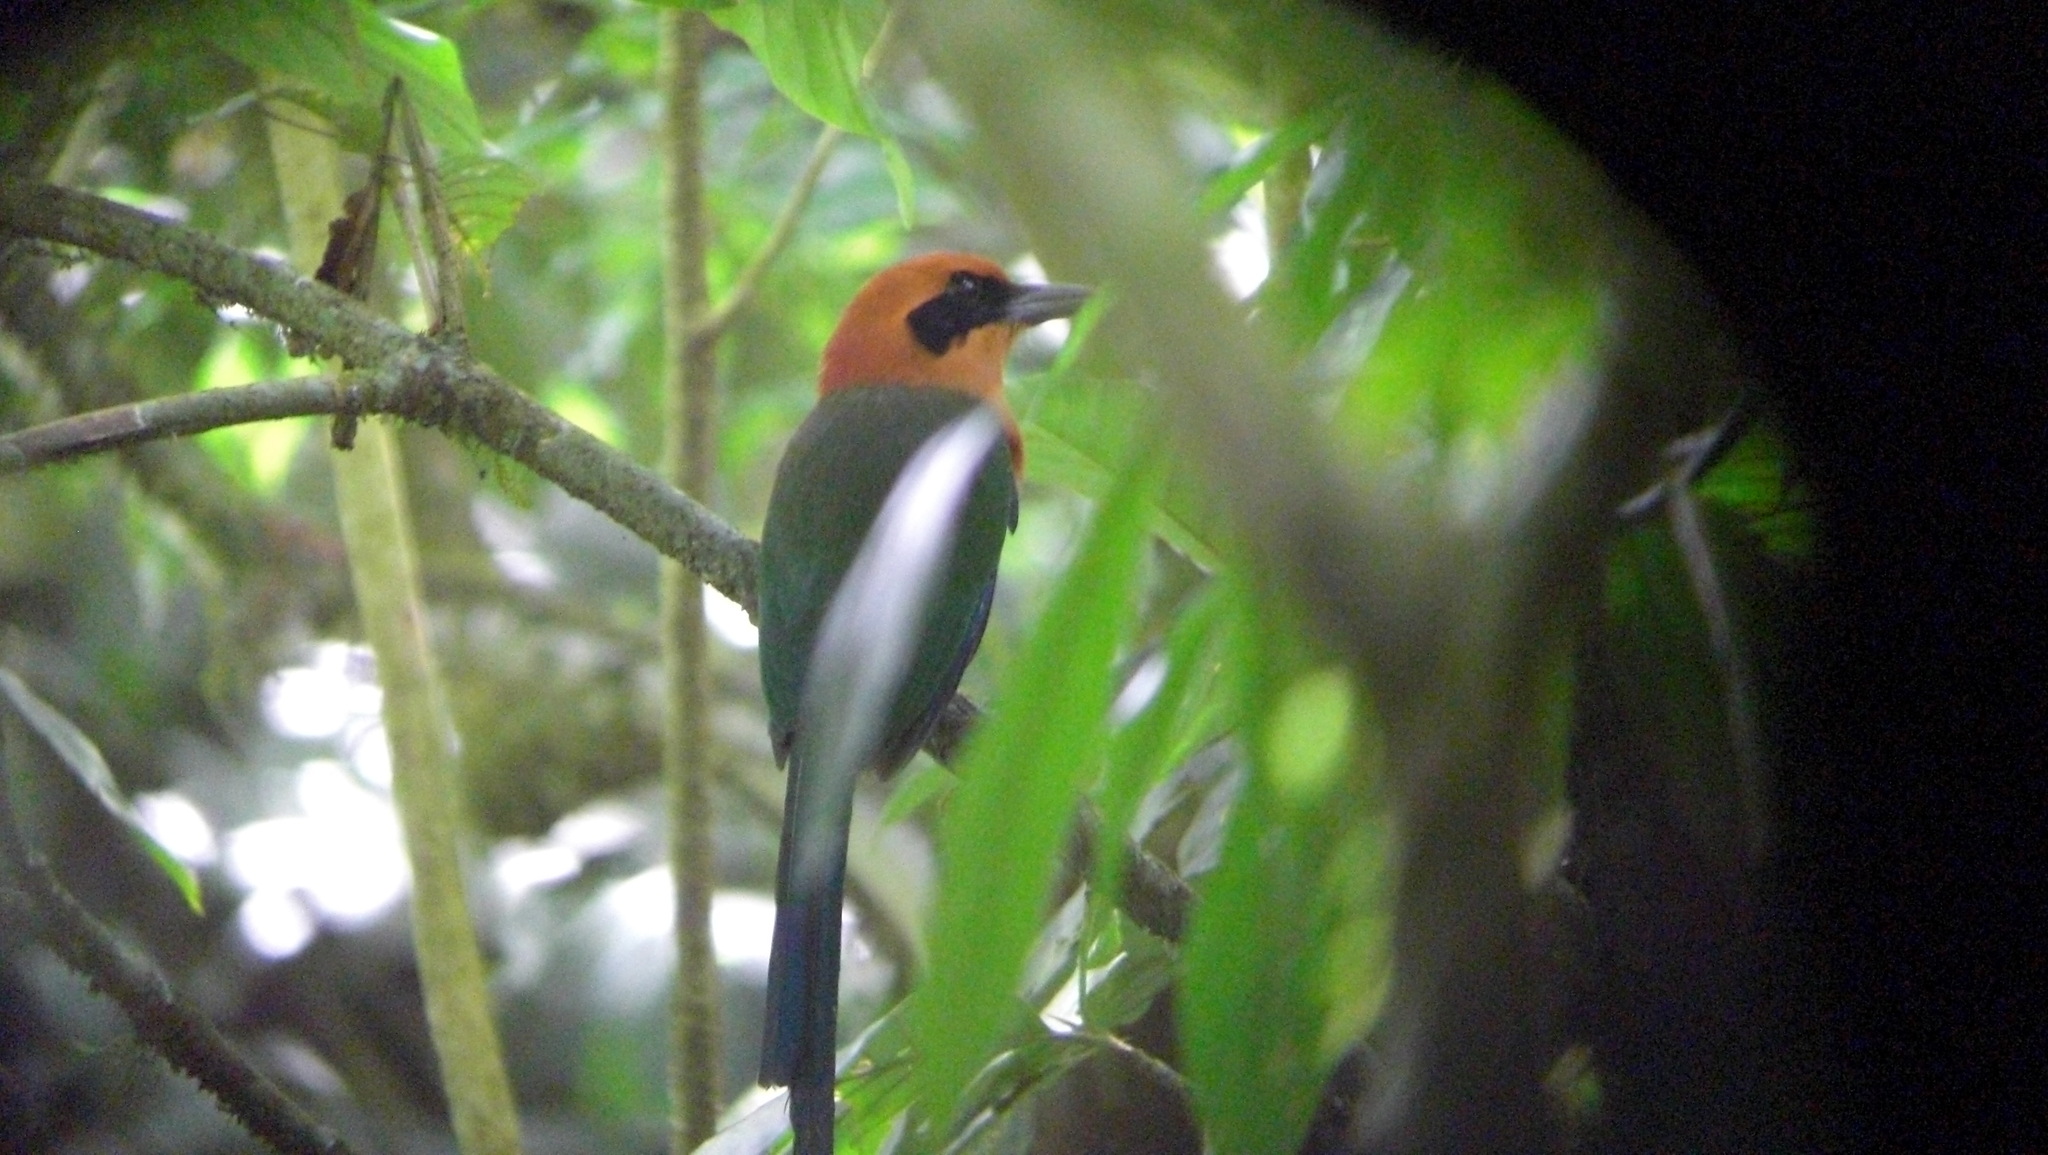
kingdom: Animalia
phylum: Chordata
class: Aves
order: Coraciiformes
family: Momotidae
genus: Baryphthengus
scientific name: Baryphthengus martii
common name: Rufous motmot
